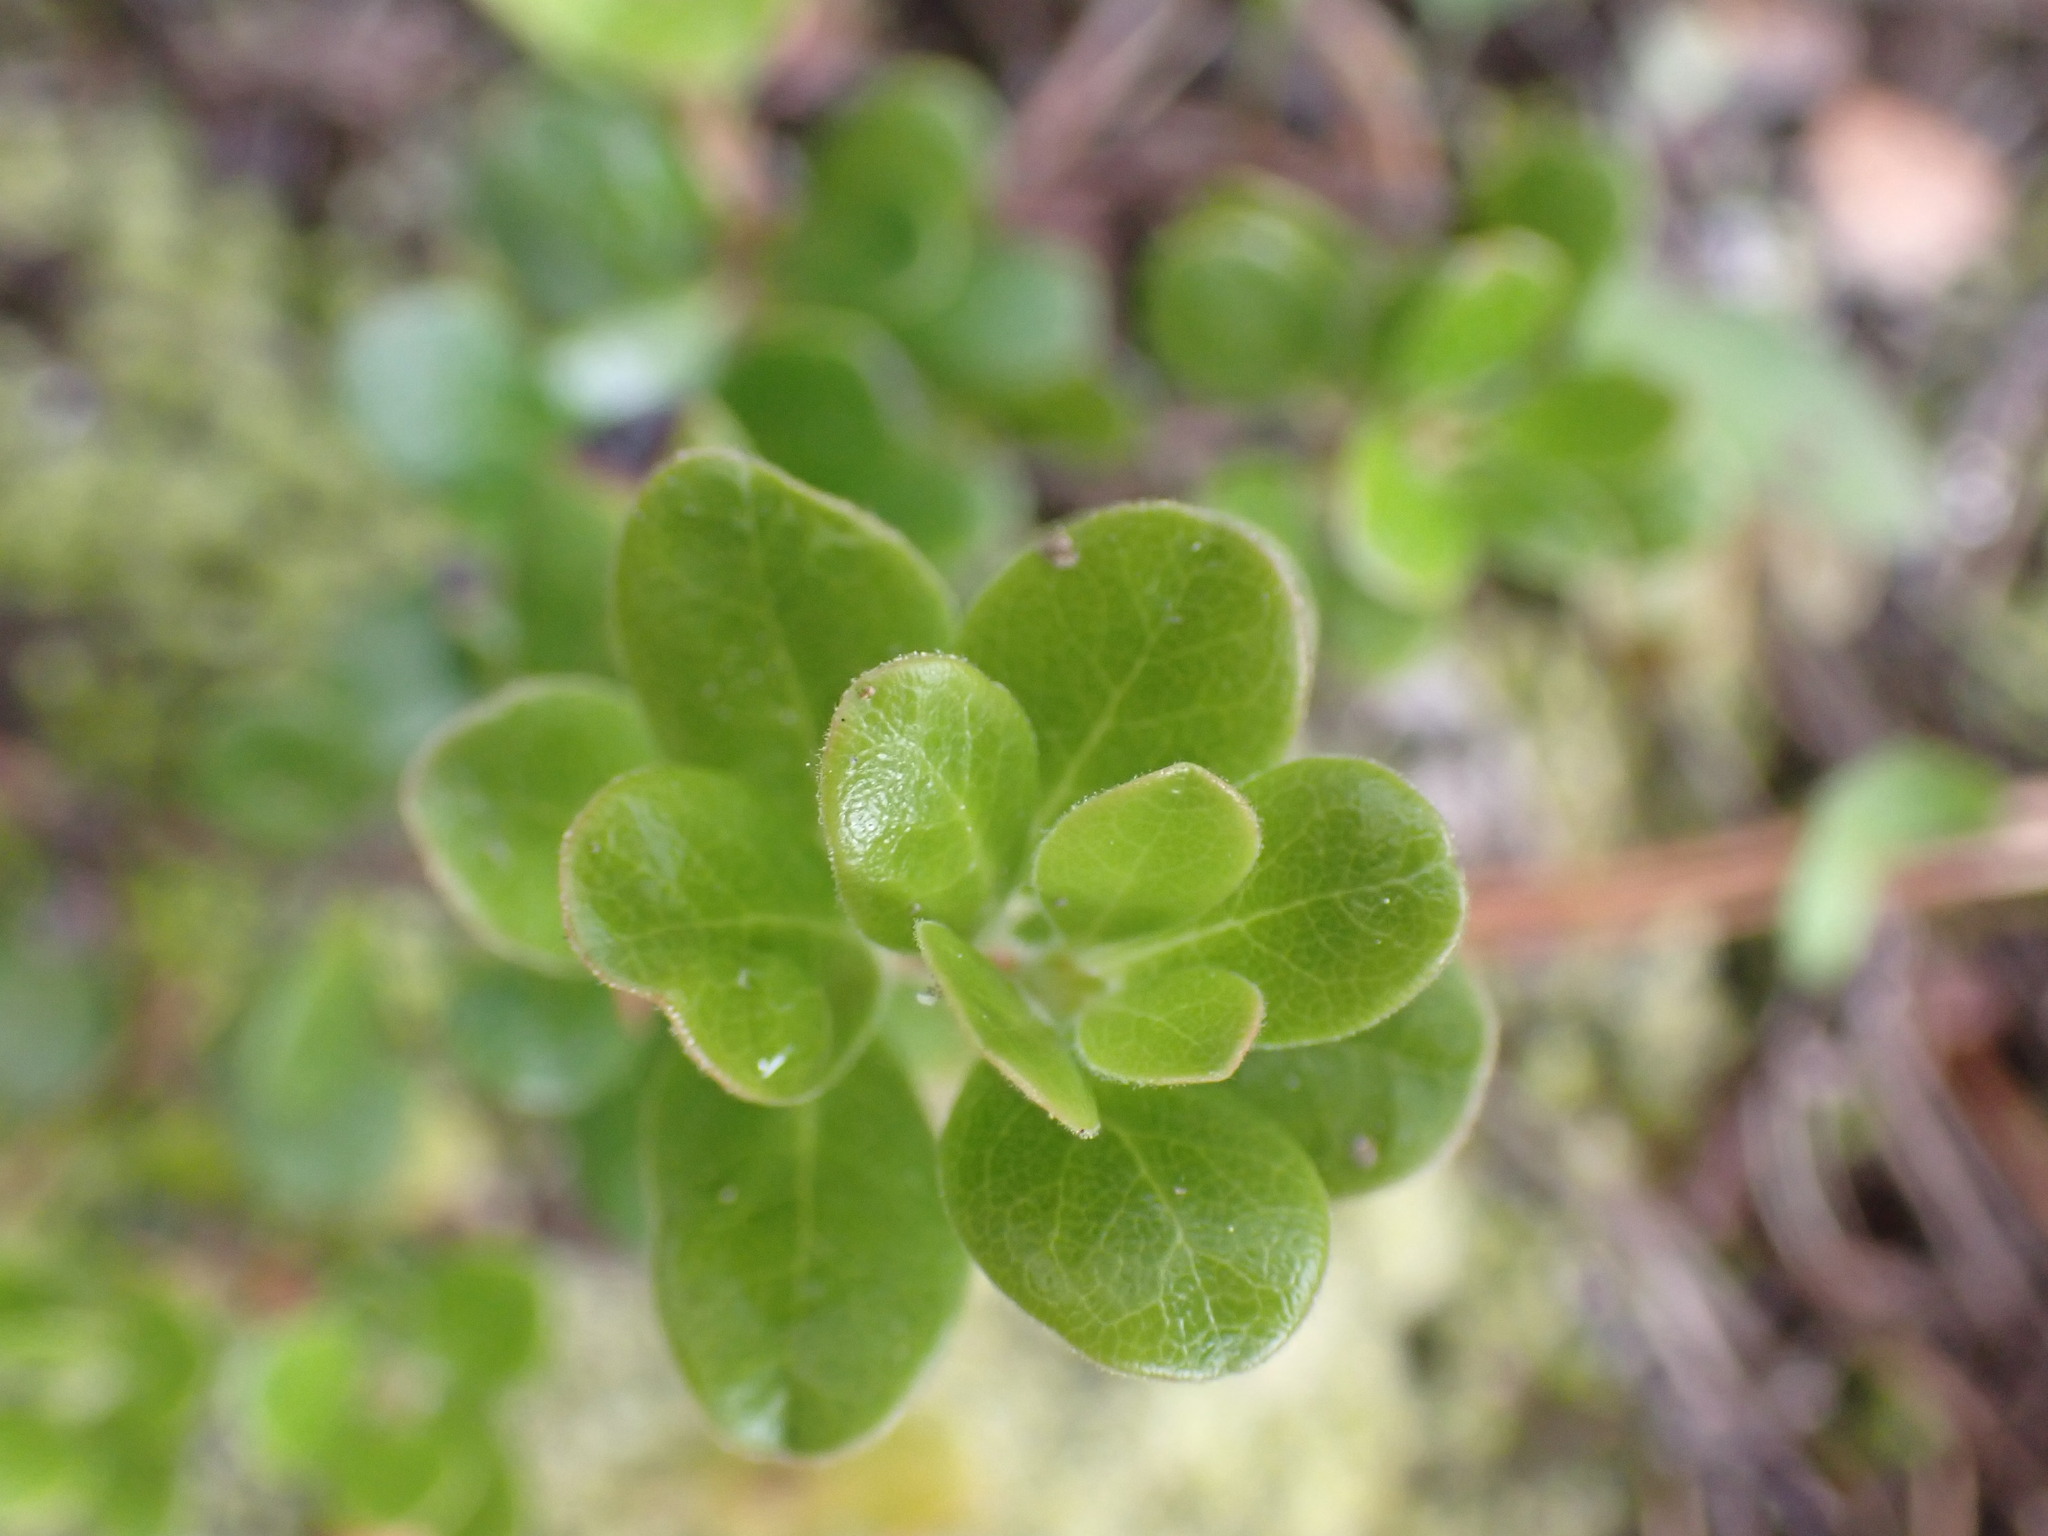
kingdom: Plantae
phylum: Tracheophyta
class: Magnoliopsida
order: Ericales
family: Ericaceae
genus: Arctostaphylos
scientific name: Arctostaphylos uva-ursi
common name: Bearberry
